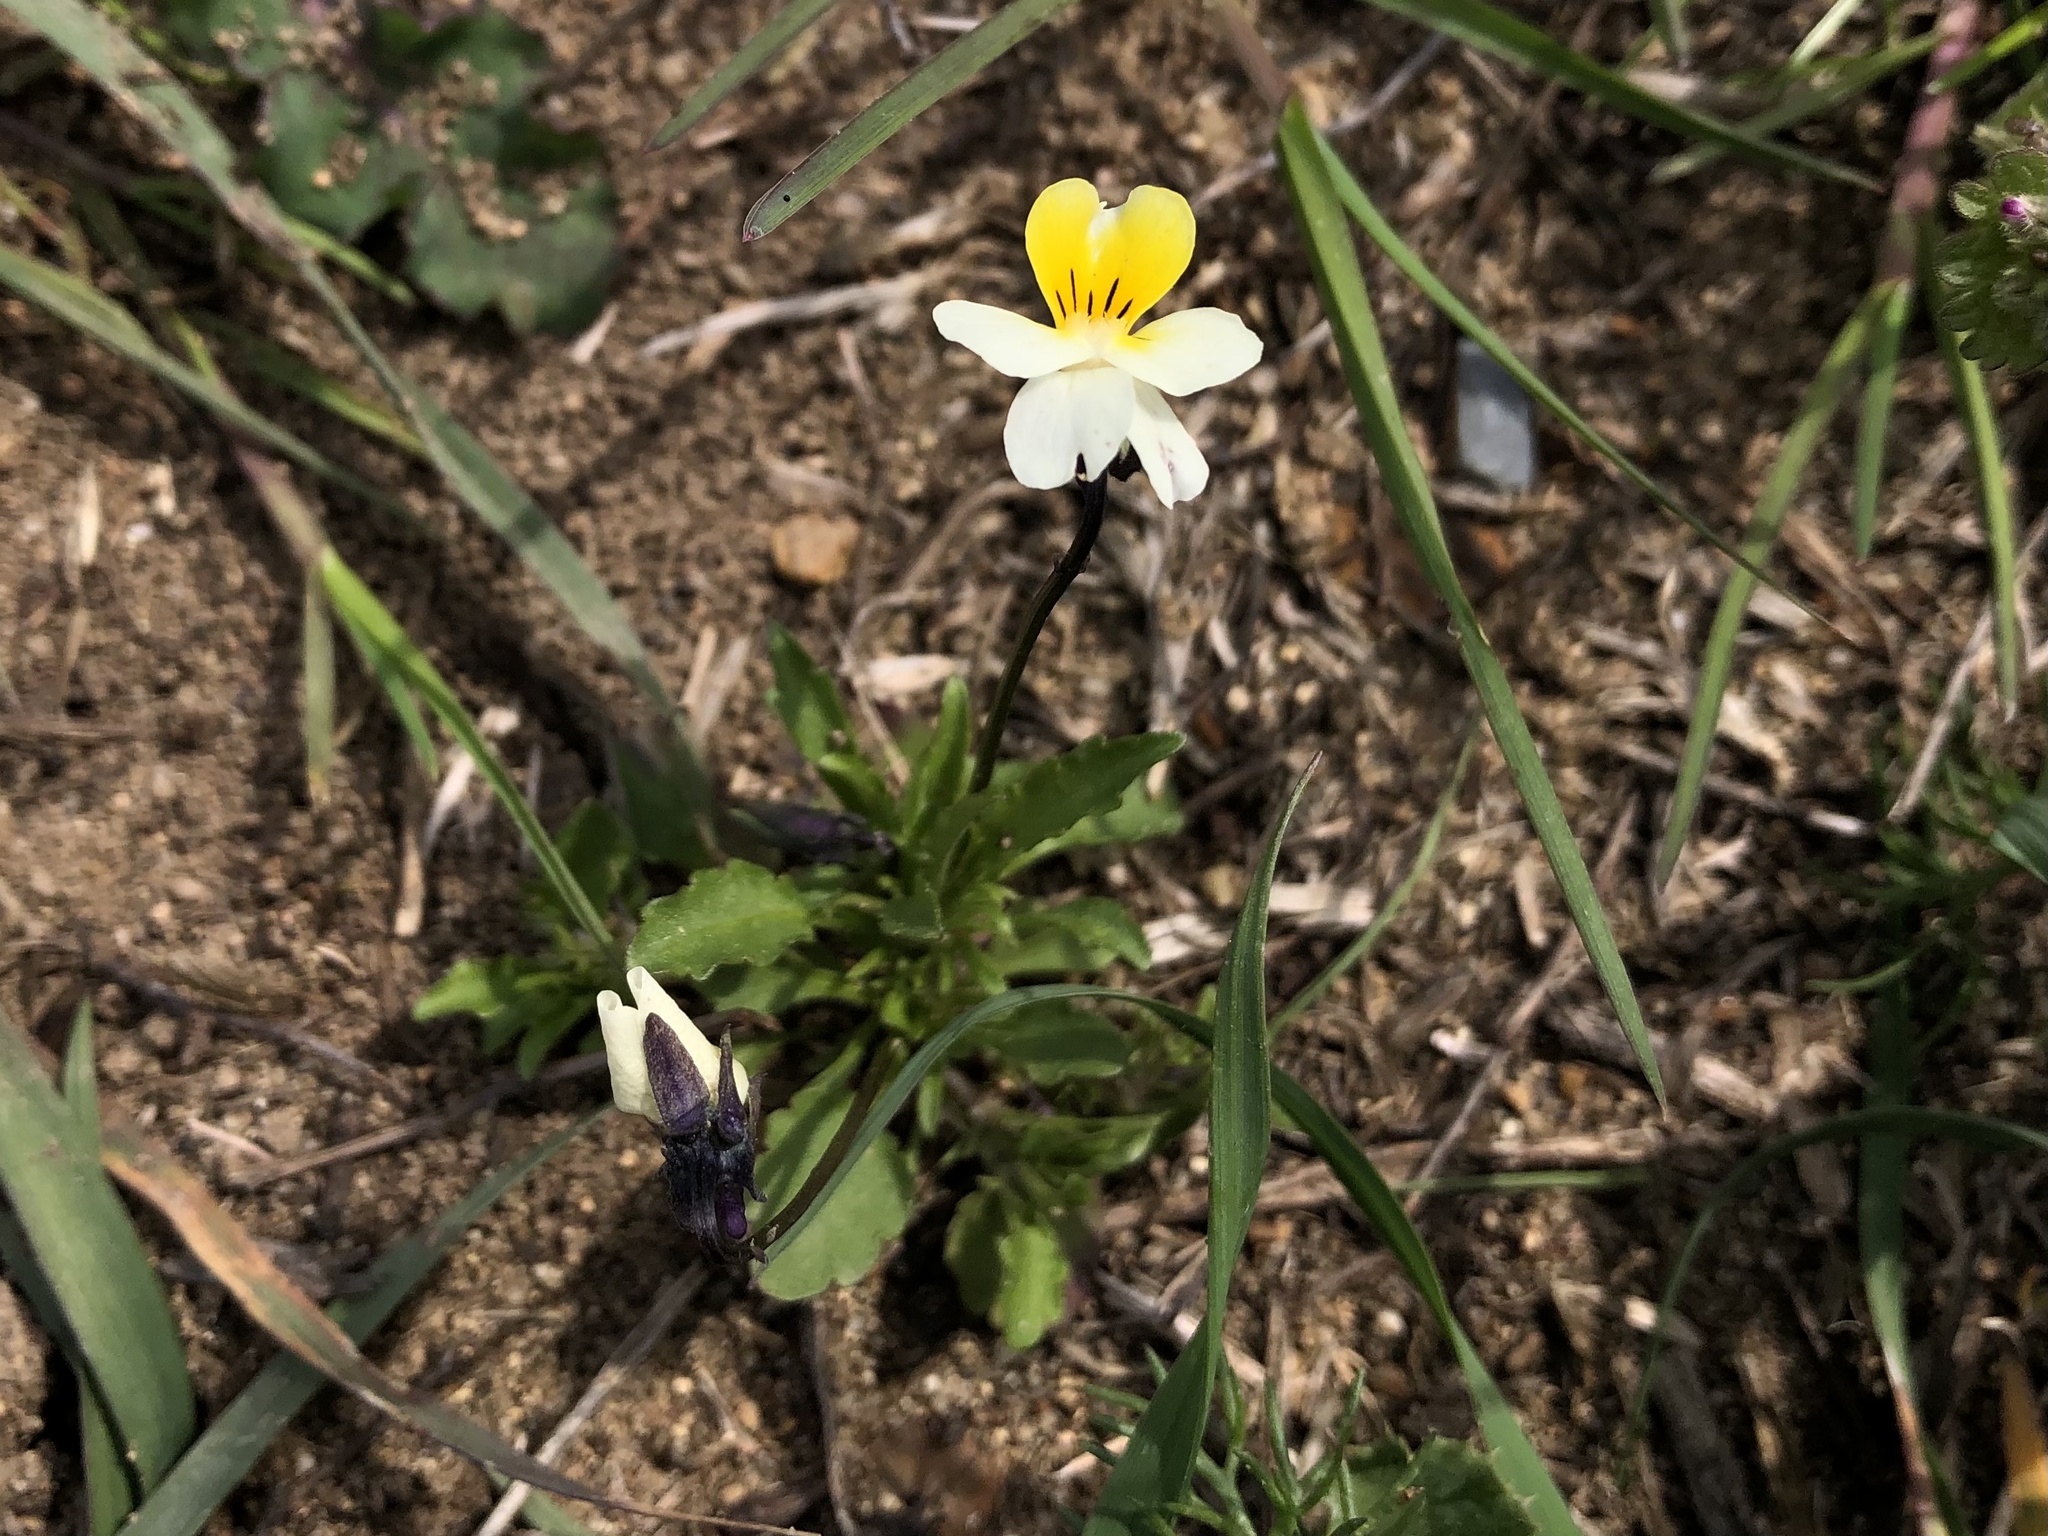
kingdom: Plantae
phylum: Tracheophyta
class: Magnoliopsida
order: Malpighiales
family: Violaceae
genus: Viola
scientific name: Viola arvensis
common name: Field pansy
